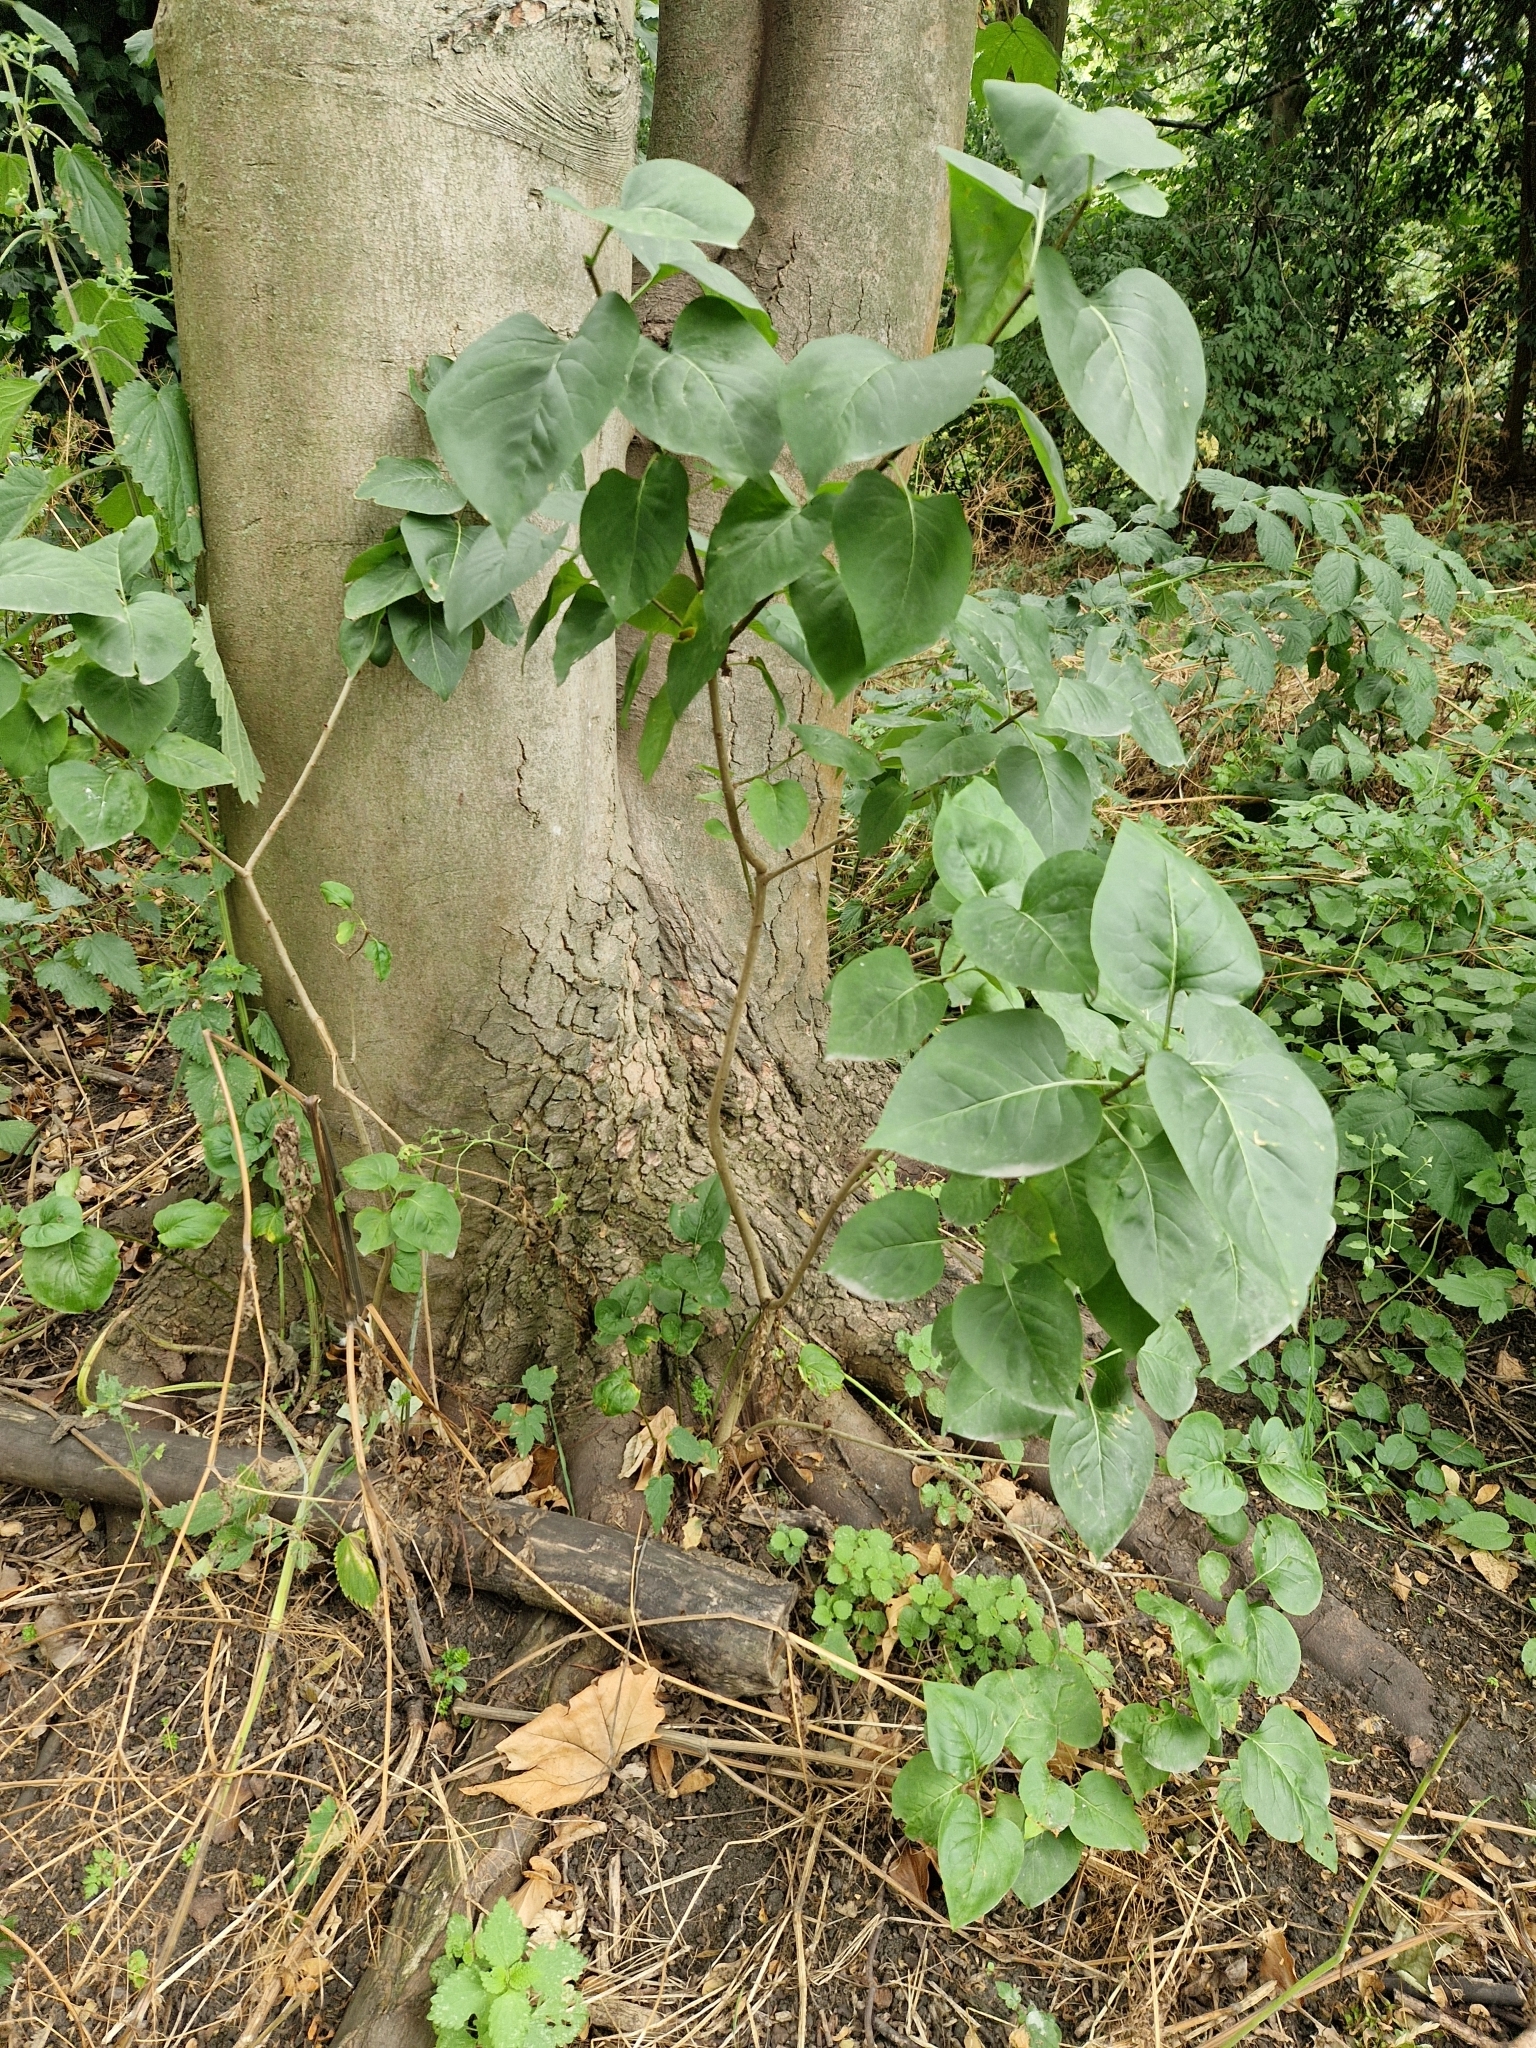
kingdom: Plantae
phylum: Tracheophyta
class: Magnoliopsida
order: Lamiales
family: Oleaceae
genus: Syringa
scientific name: Syringa vulgaris
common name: Common lilac
